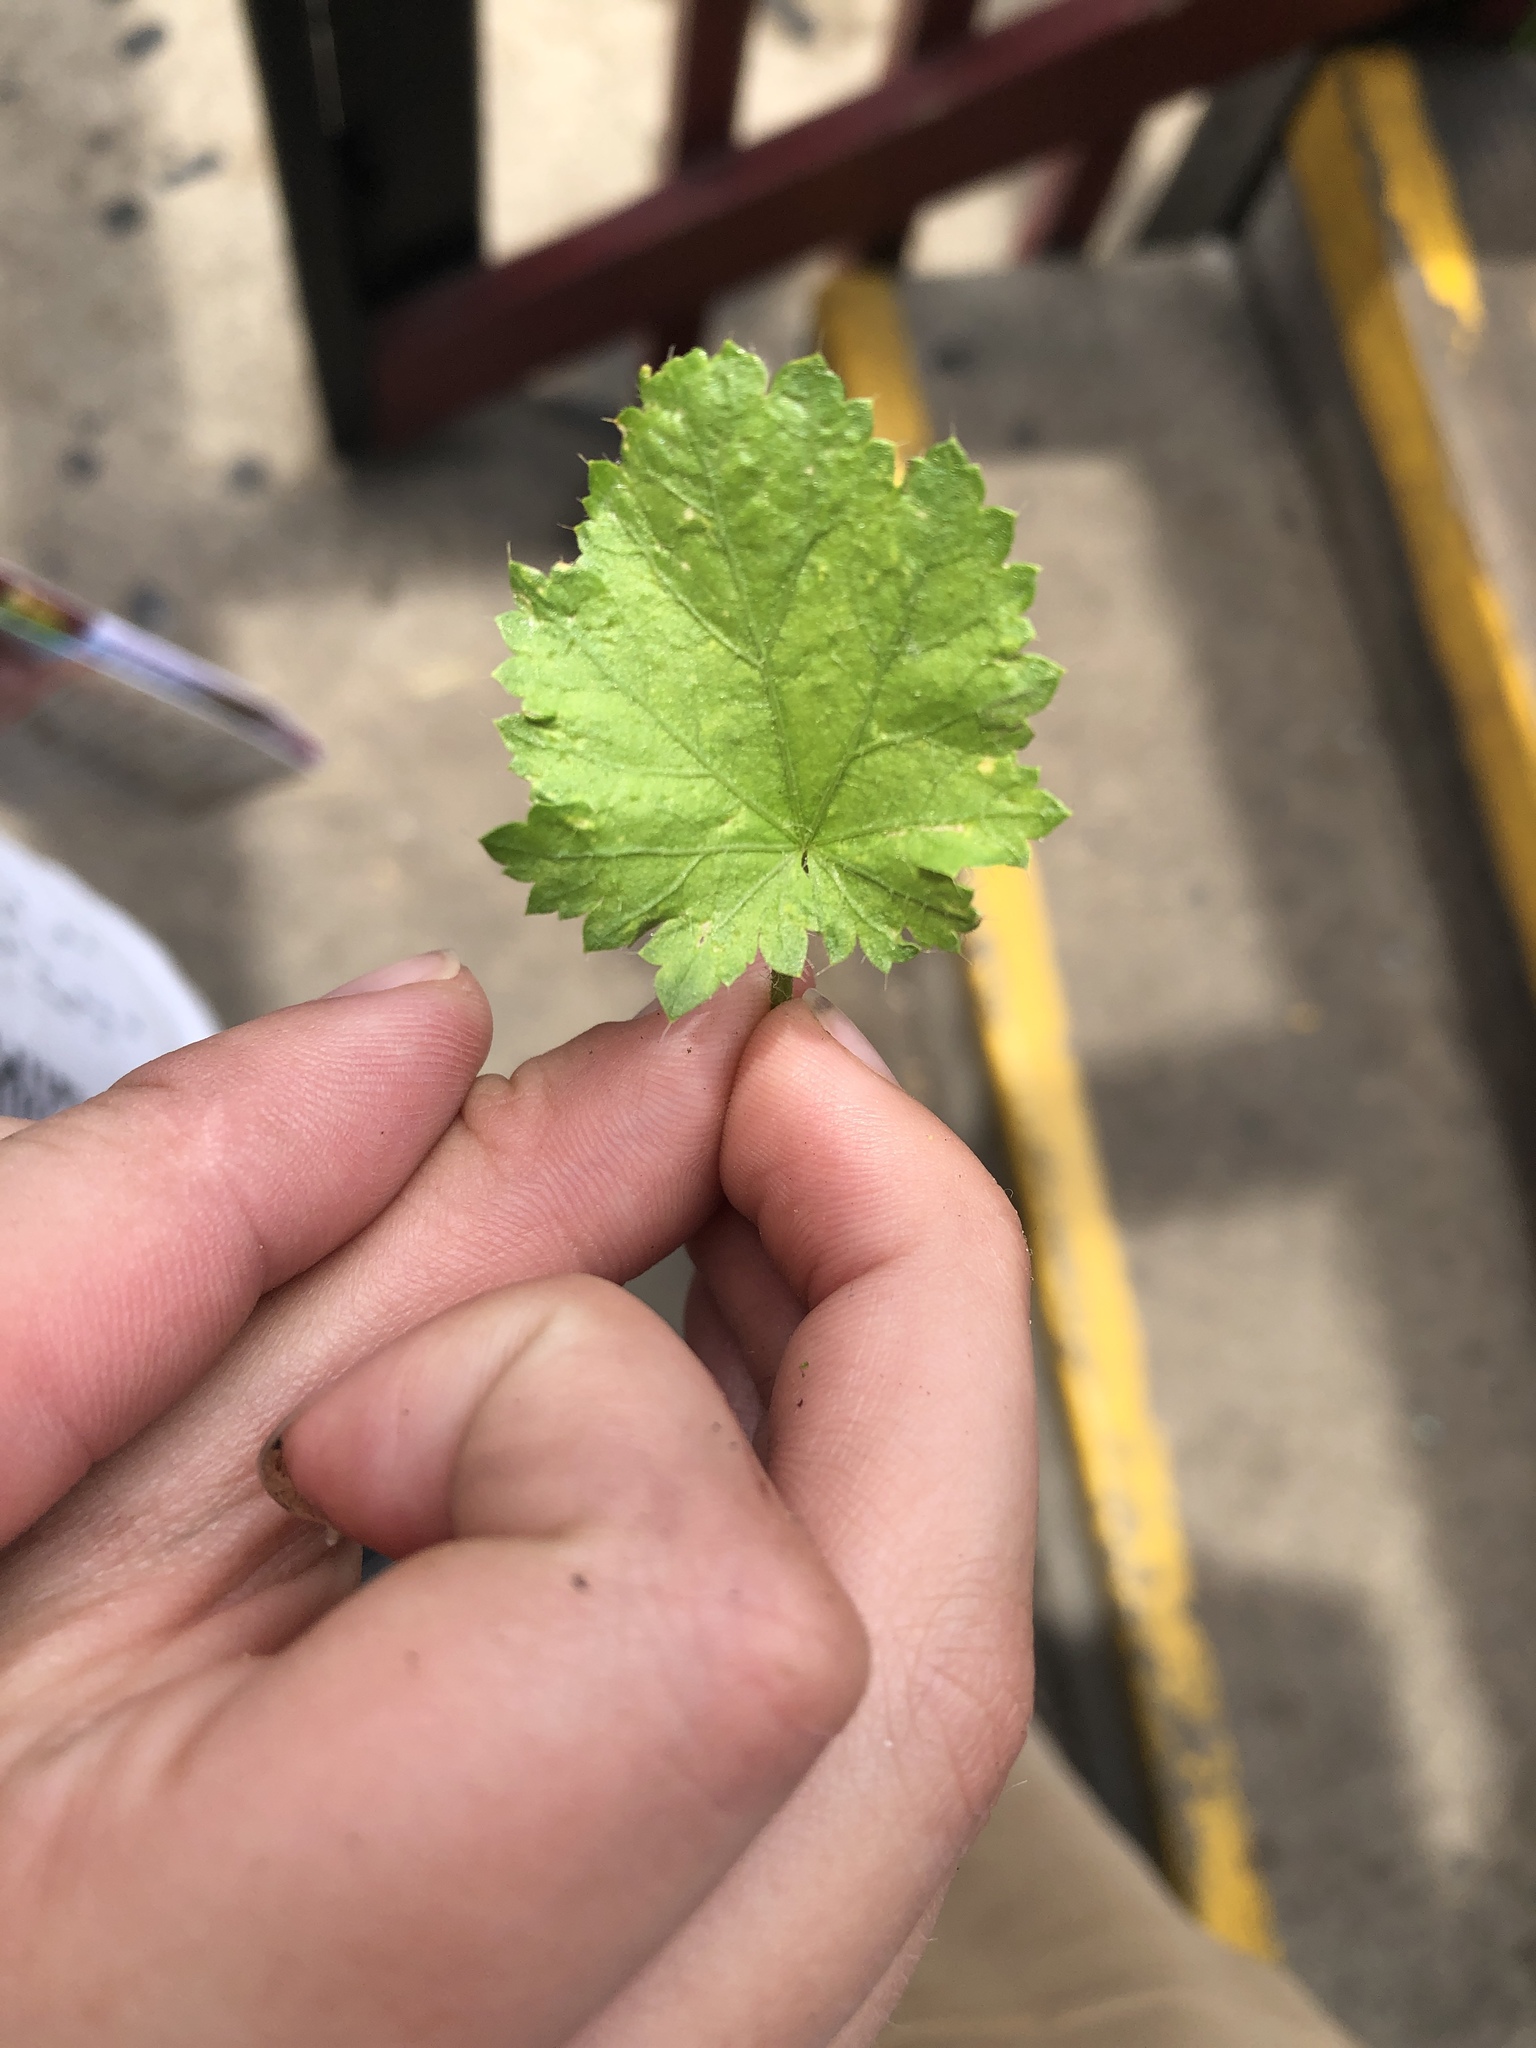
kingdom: Plantae
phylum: Tracheophyta
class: Magnoliopsida
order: Malvales
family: Malvaceae
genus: Modiola
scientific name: Modiola caroliniana
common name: Carolina bristlemallow
